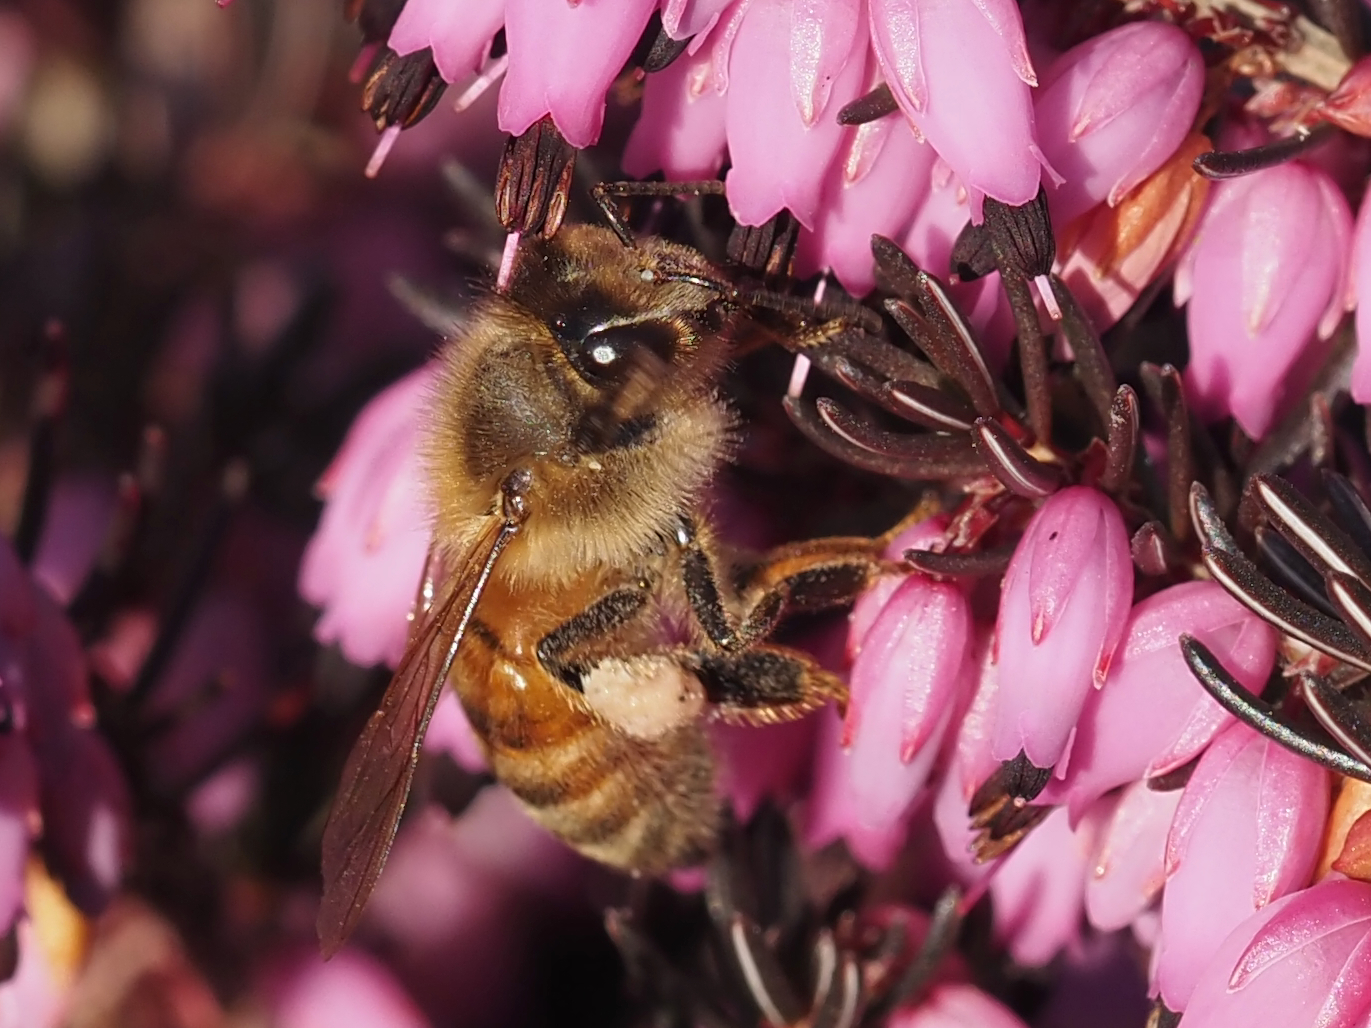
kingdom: Animalia
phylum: Arthropoda
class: Insecta
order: Hymenoptera
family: Apidae
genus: Apis
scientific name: Apis mellifera
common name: Honey bee
